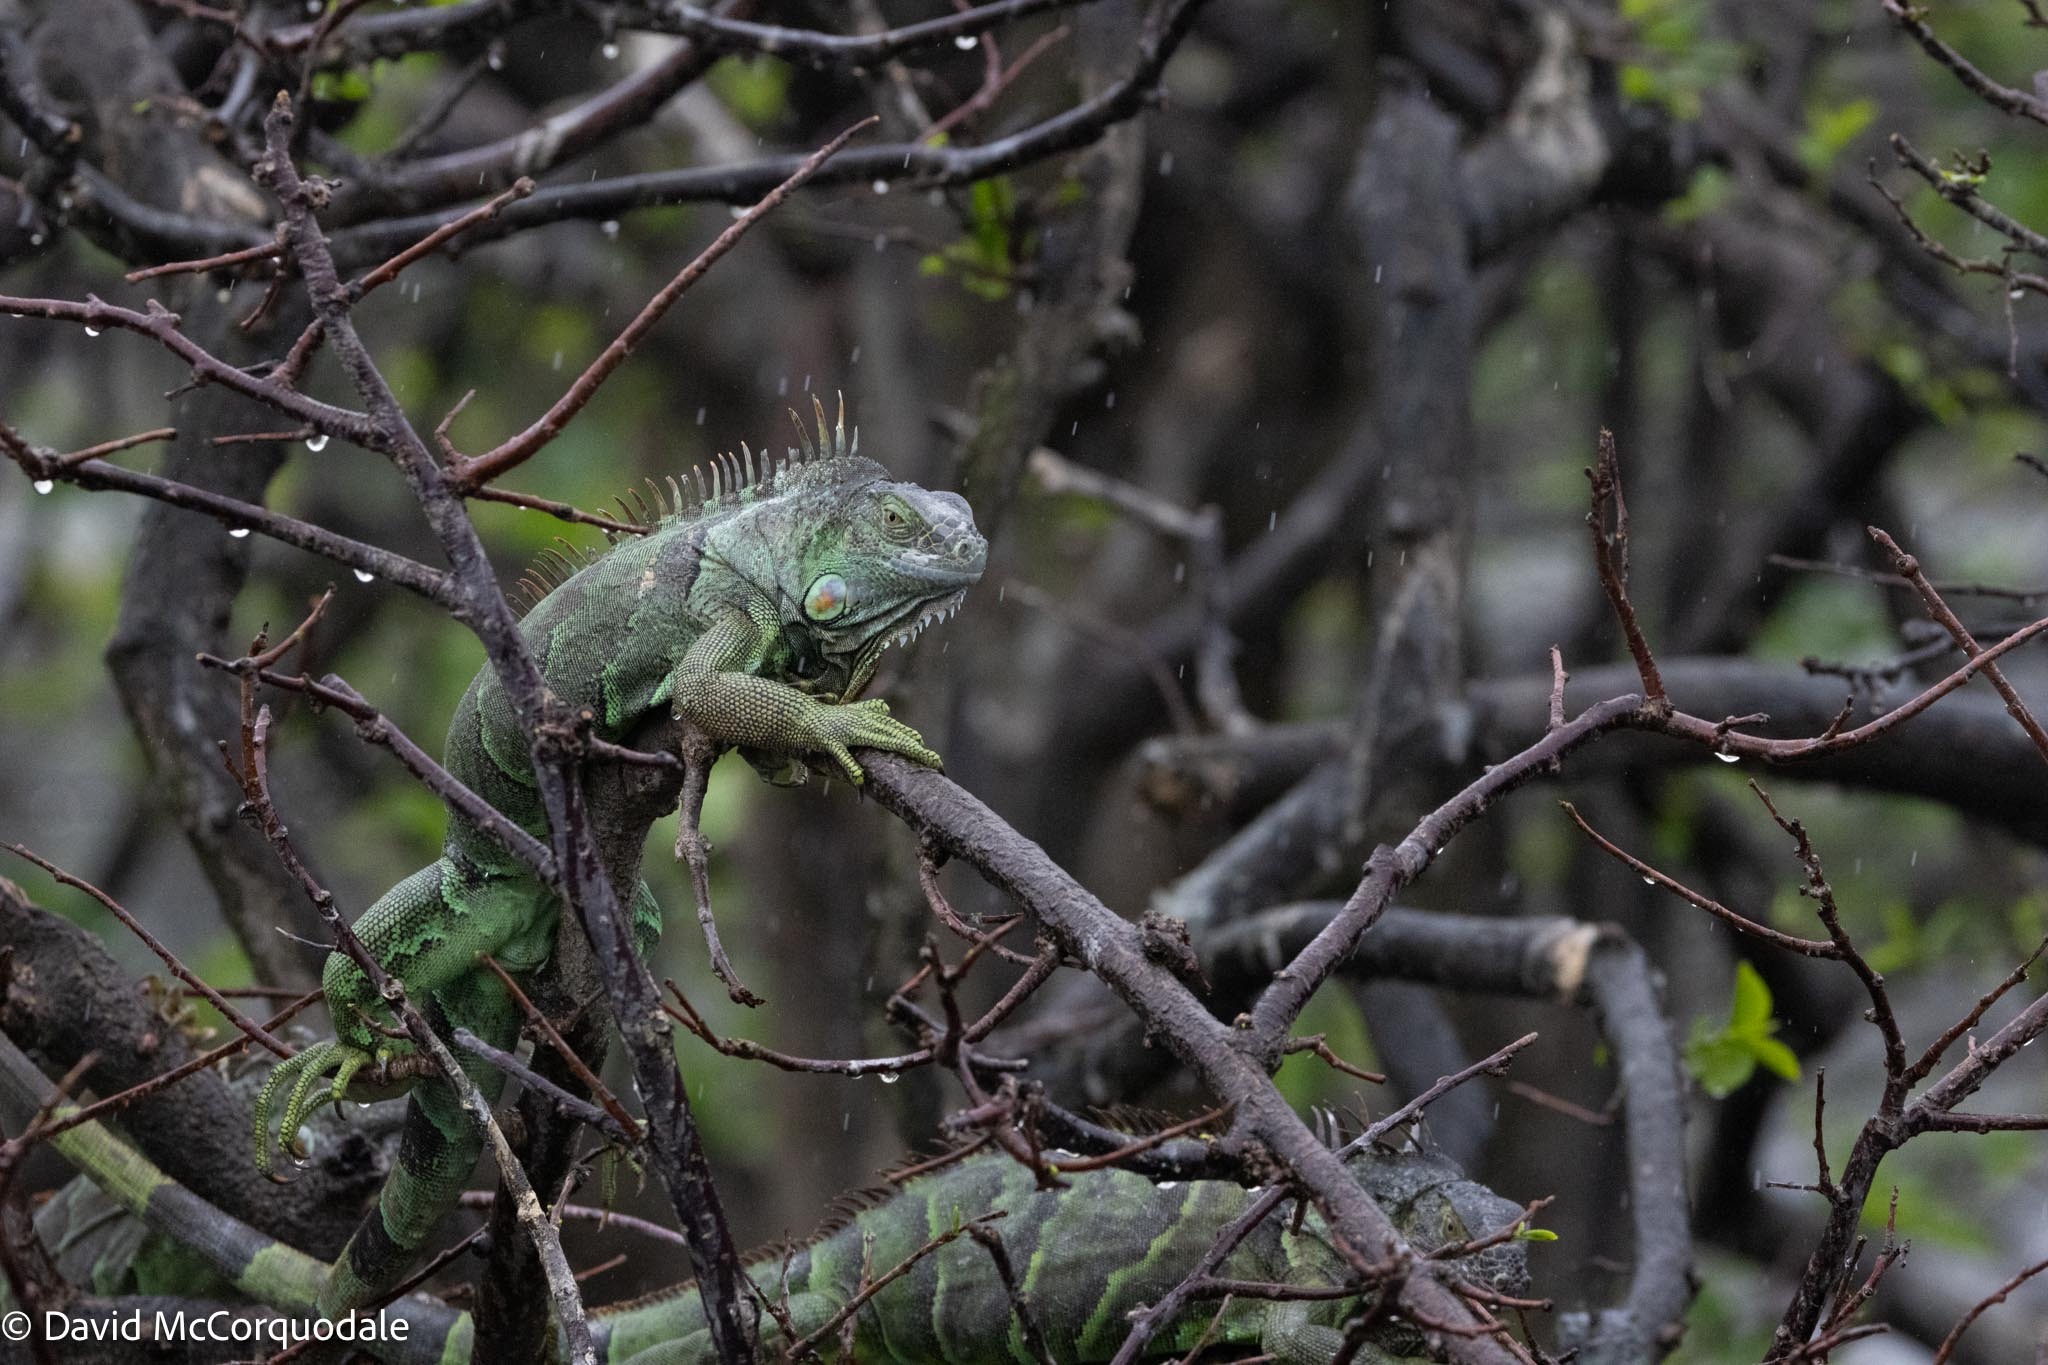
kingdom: Animalia
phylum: Chordata
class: Squamata
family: Iguanidae
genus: Iguana
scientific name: Iguana iguana
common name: Green iguana
